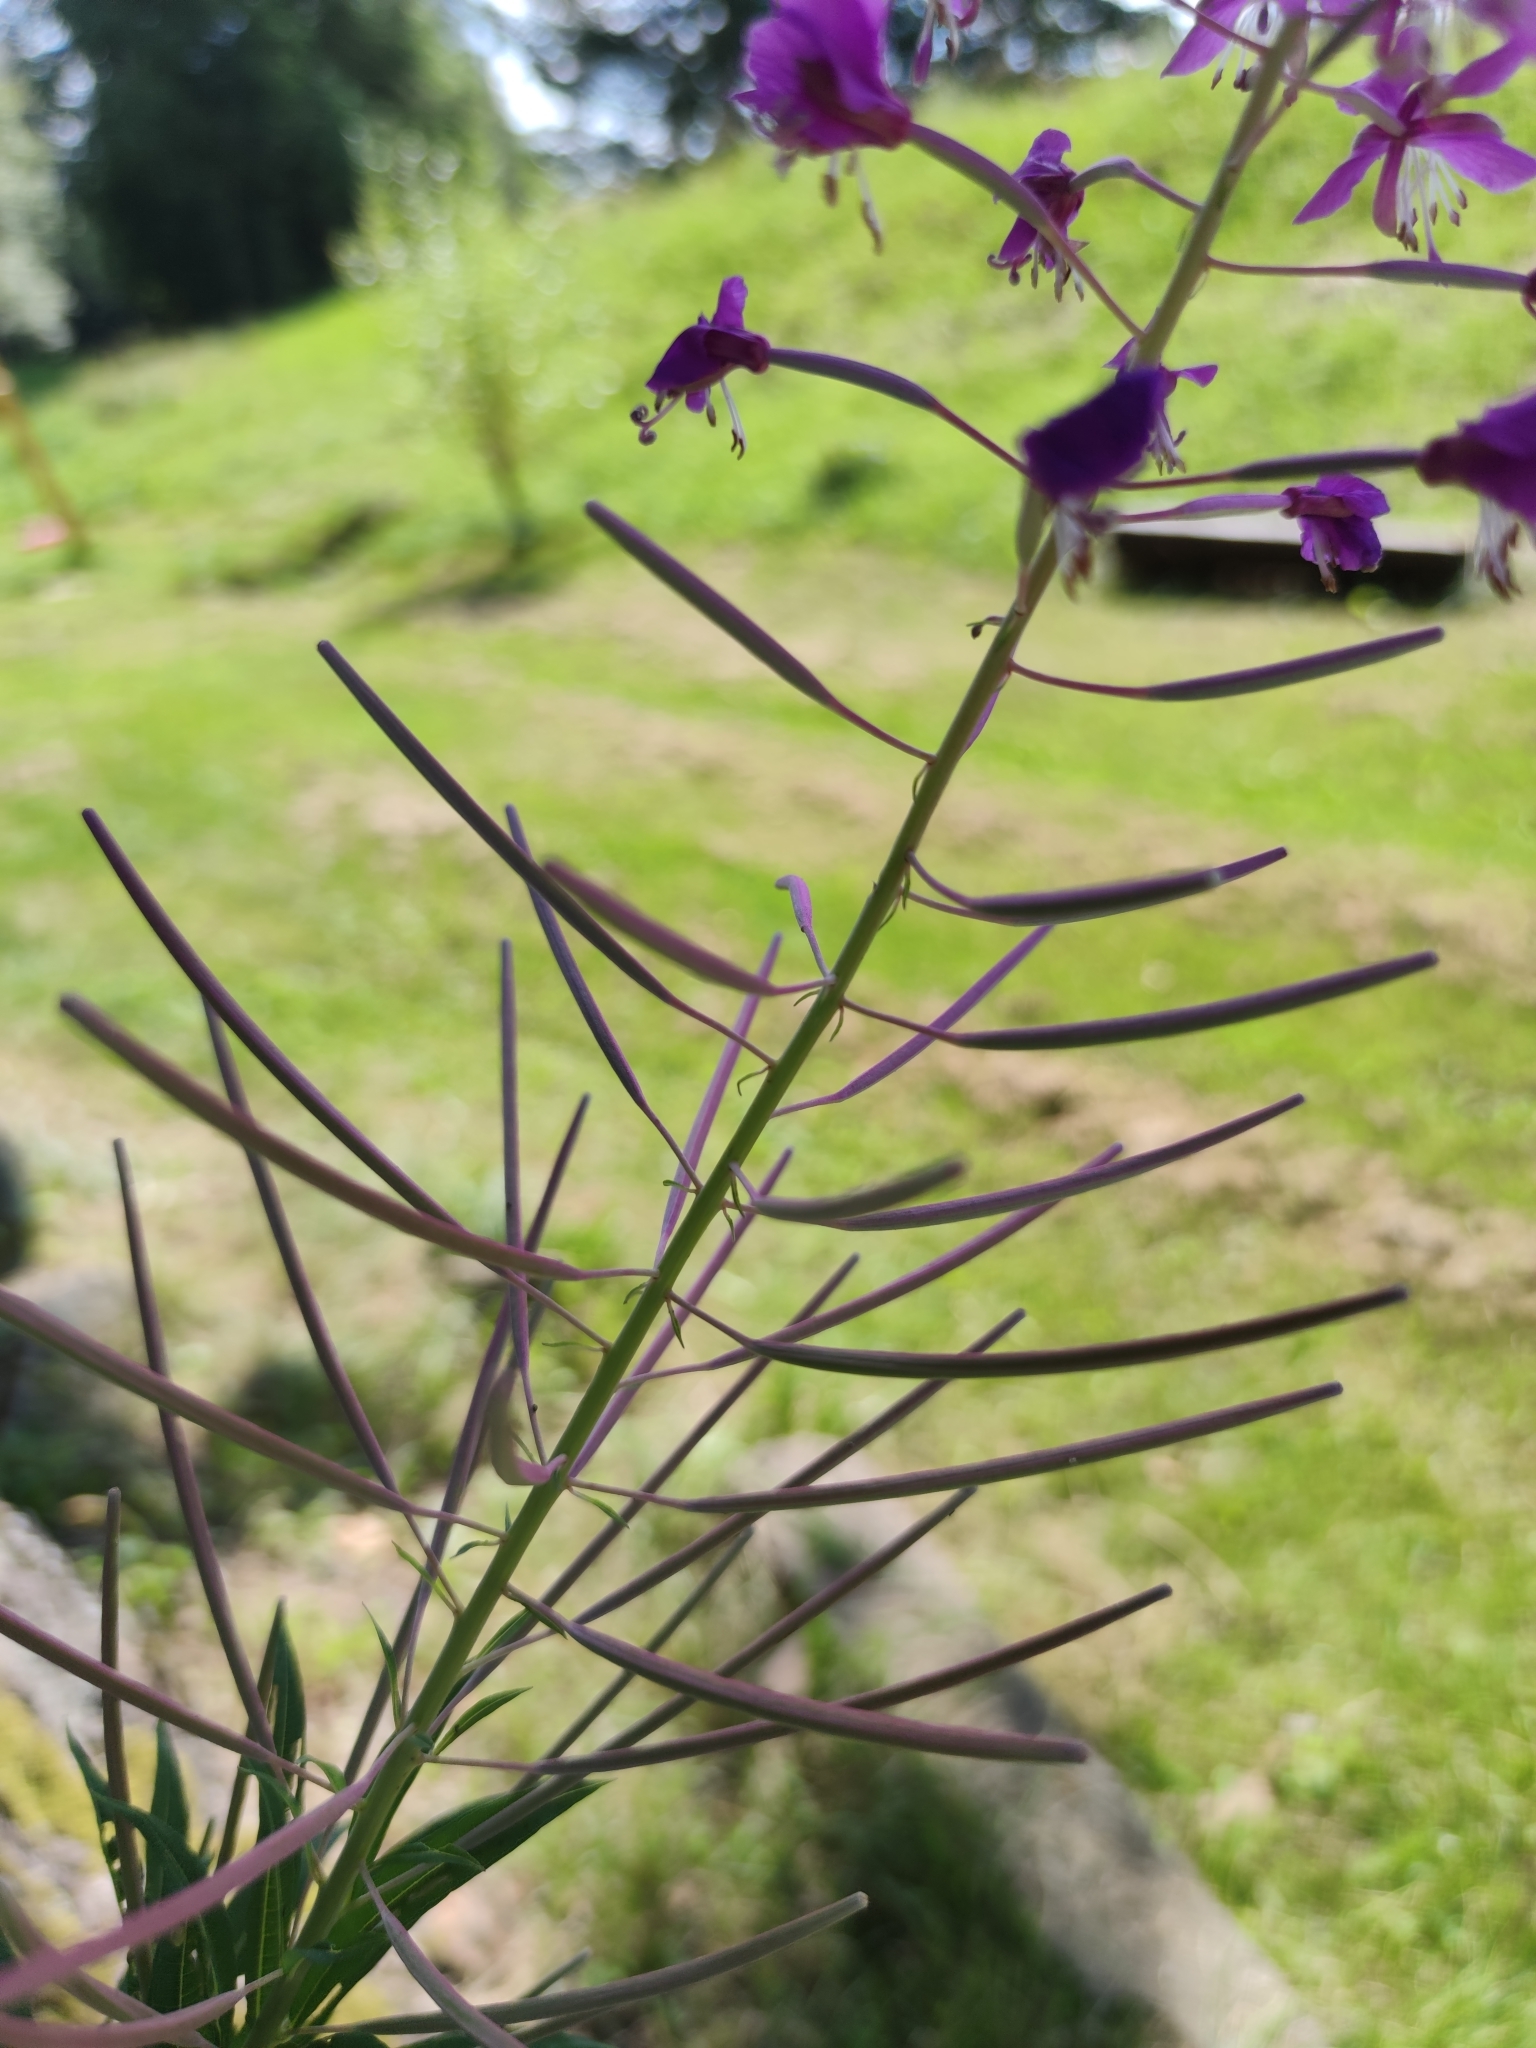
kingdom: Plantae
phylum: Tracheophyta
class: Magnoliopsida
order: Myrtales
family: Onagraceae
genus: Chamaenerion
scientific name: Chamaenerion angustifolium
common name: Fireweed
